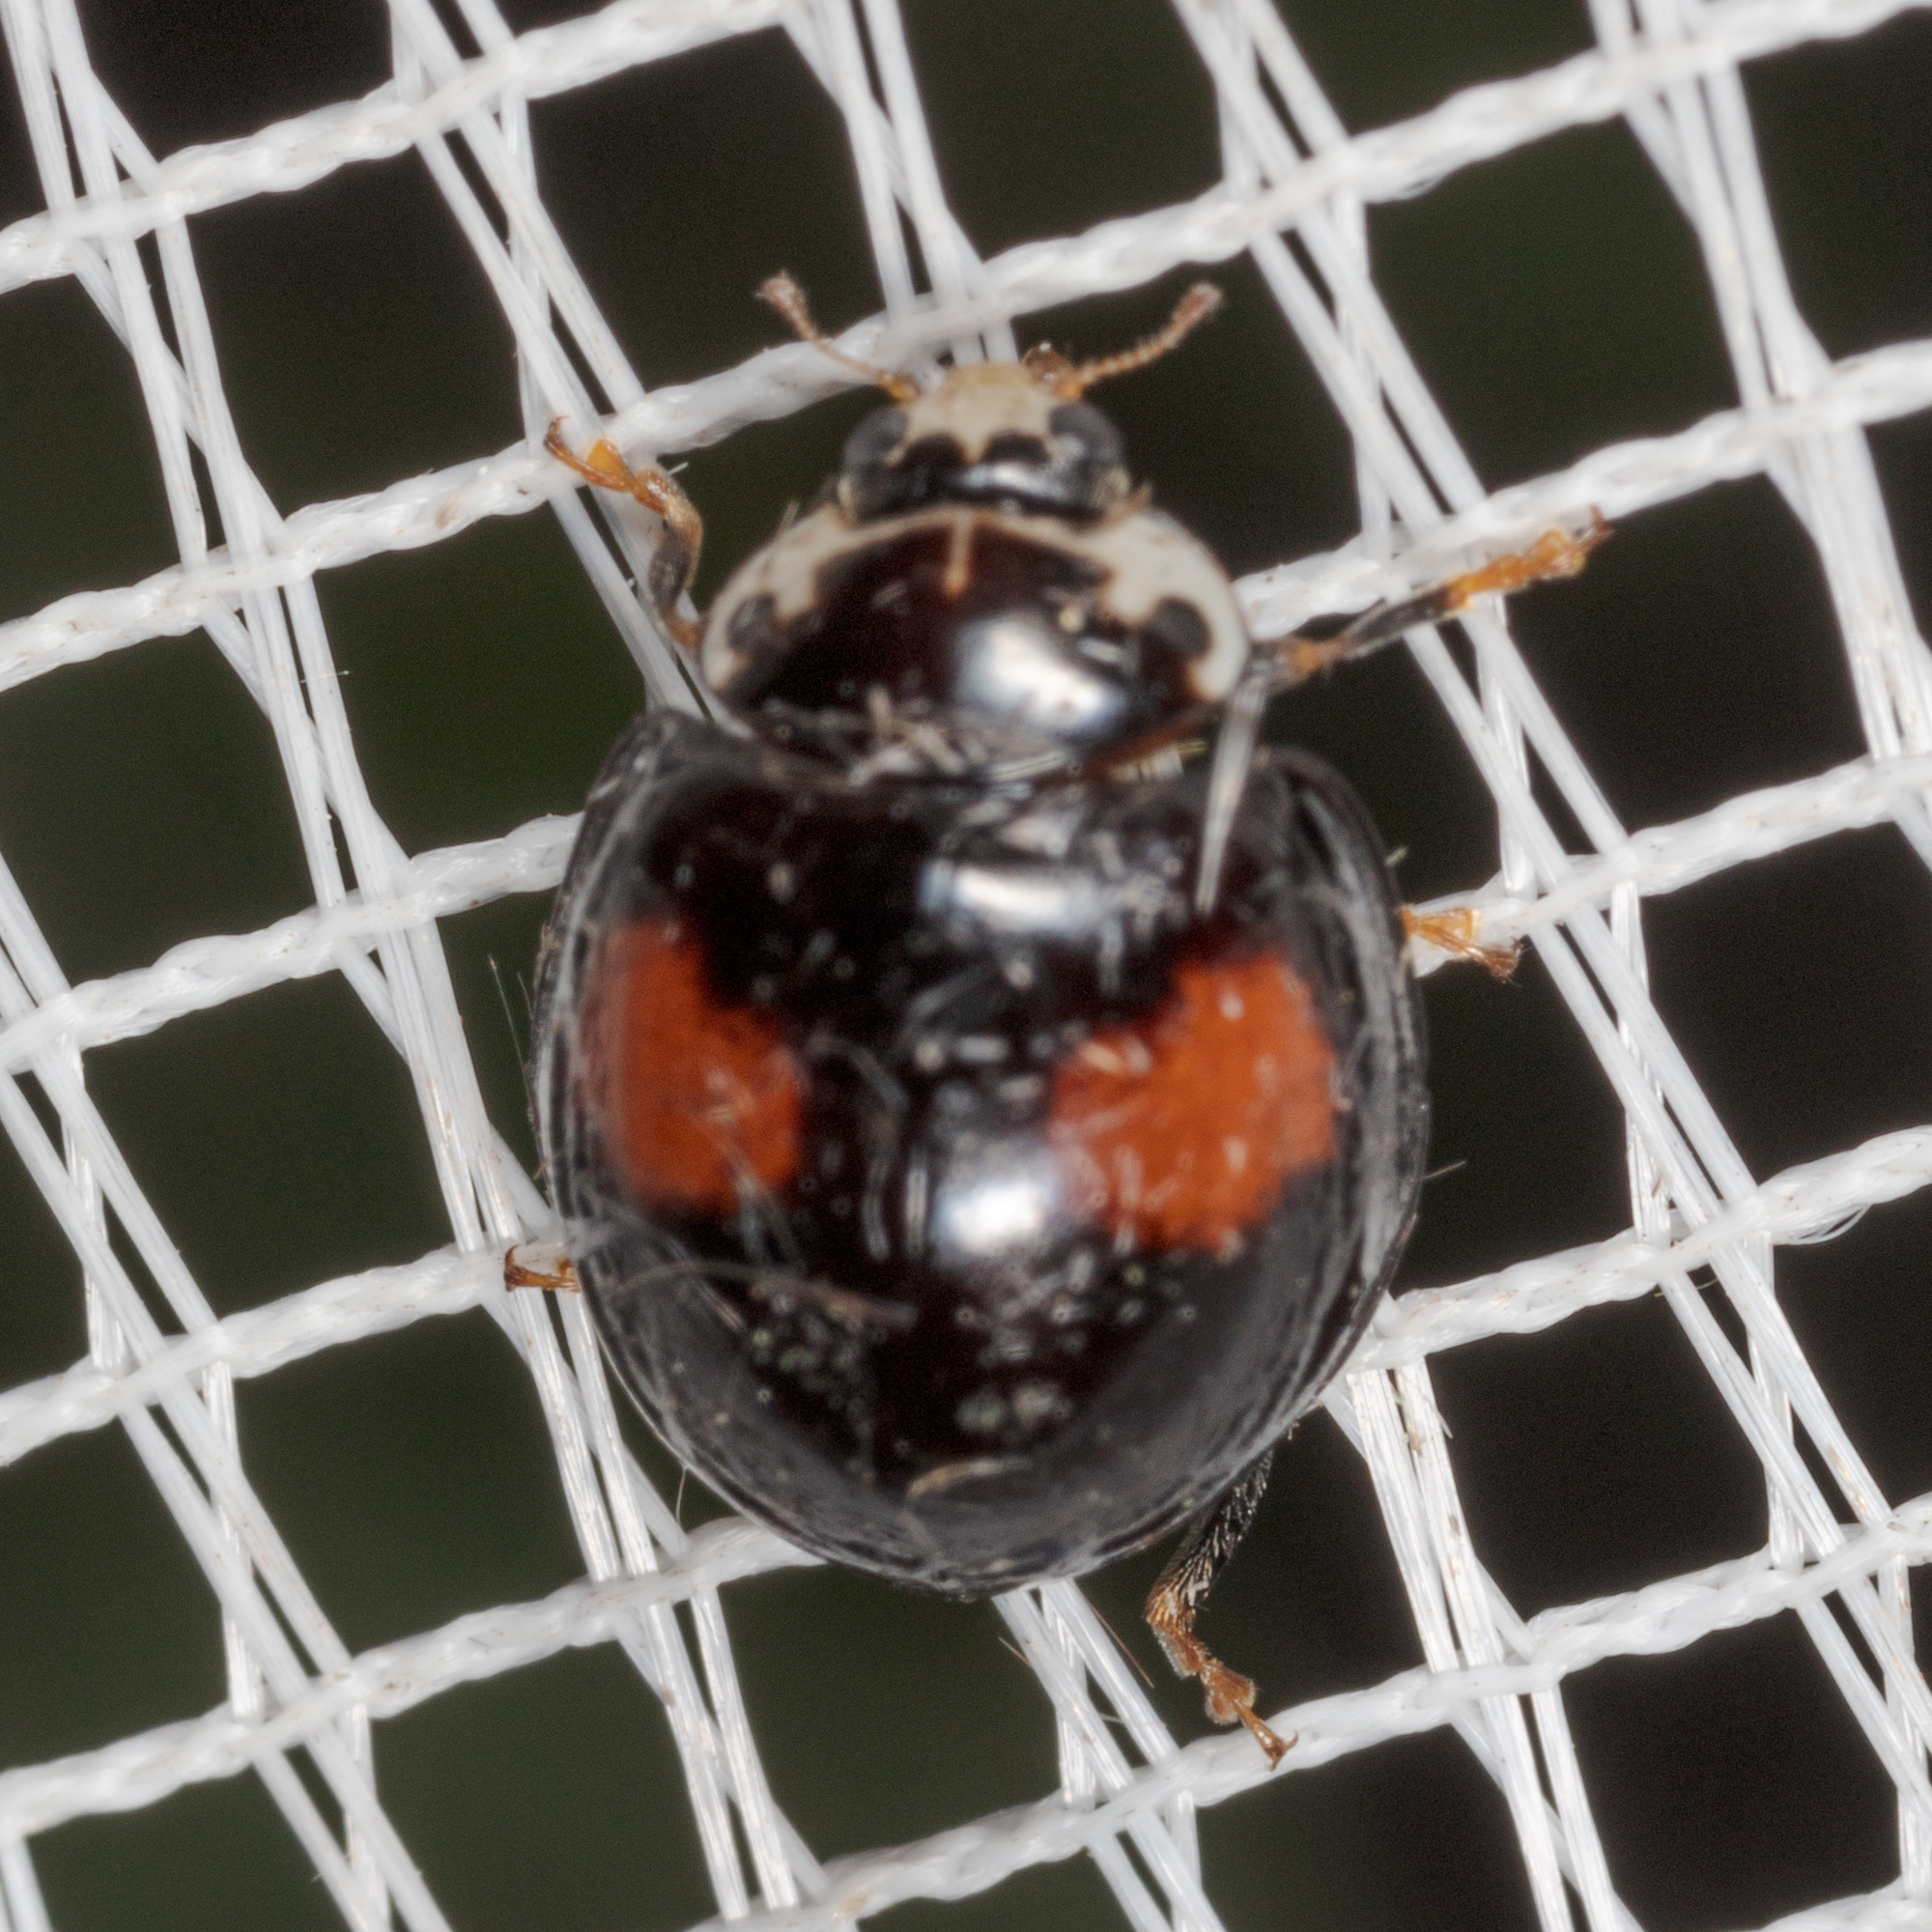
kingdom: Animalia
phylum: Arthropoda
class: Insecta
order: Coleoptera
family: Coccinellidae
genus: Olla
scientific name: Olla v-nigrum
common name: Ashy gray lady beetle
